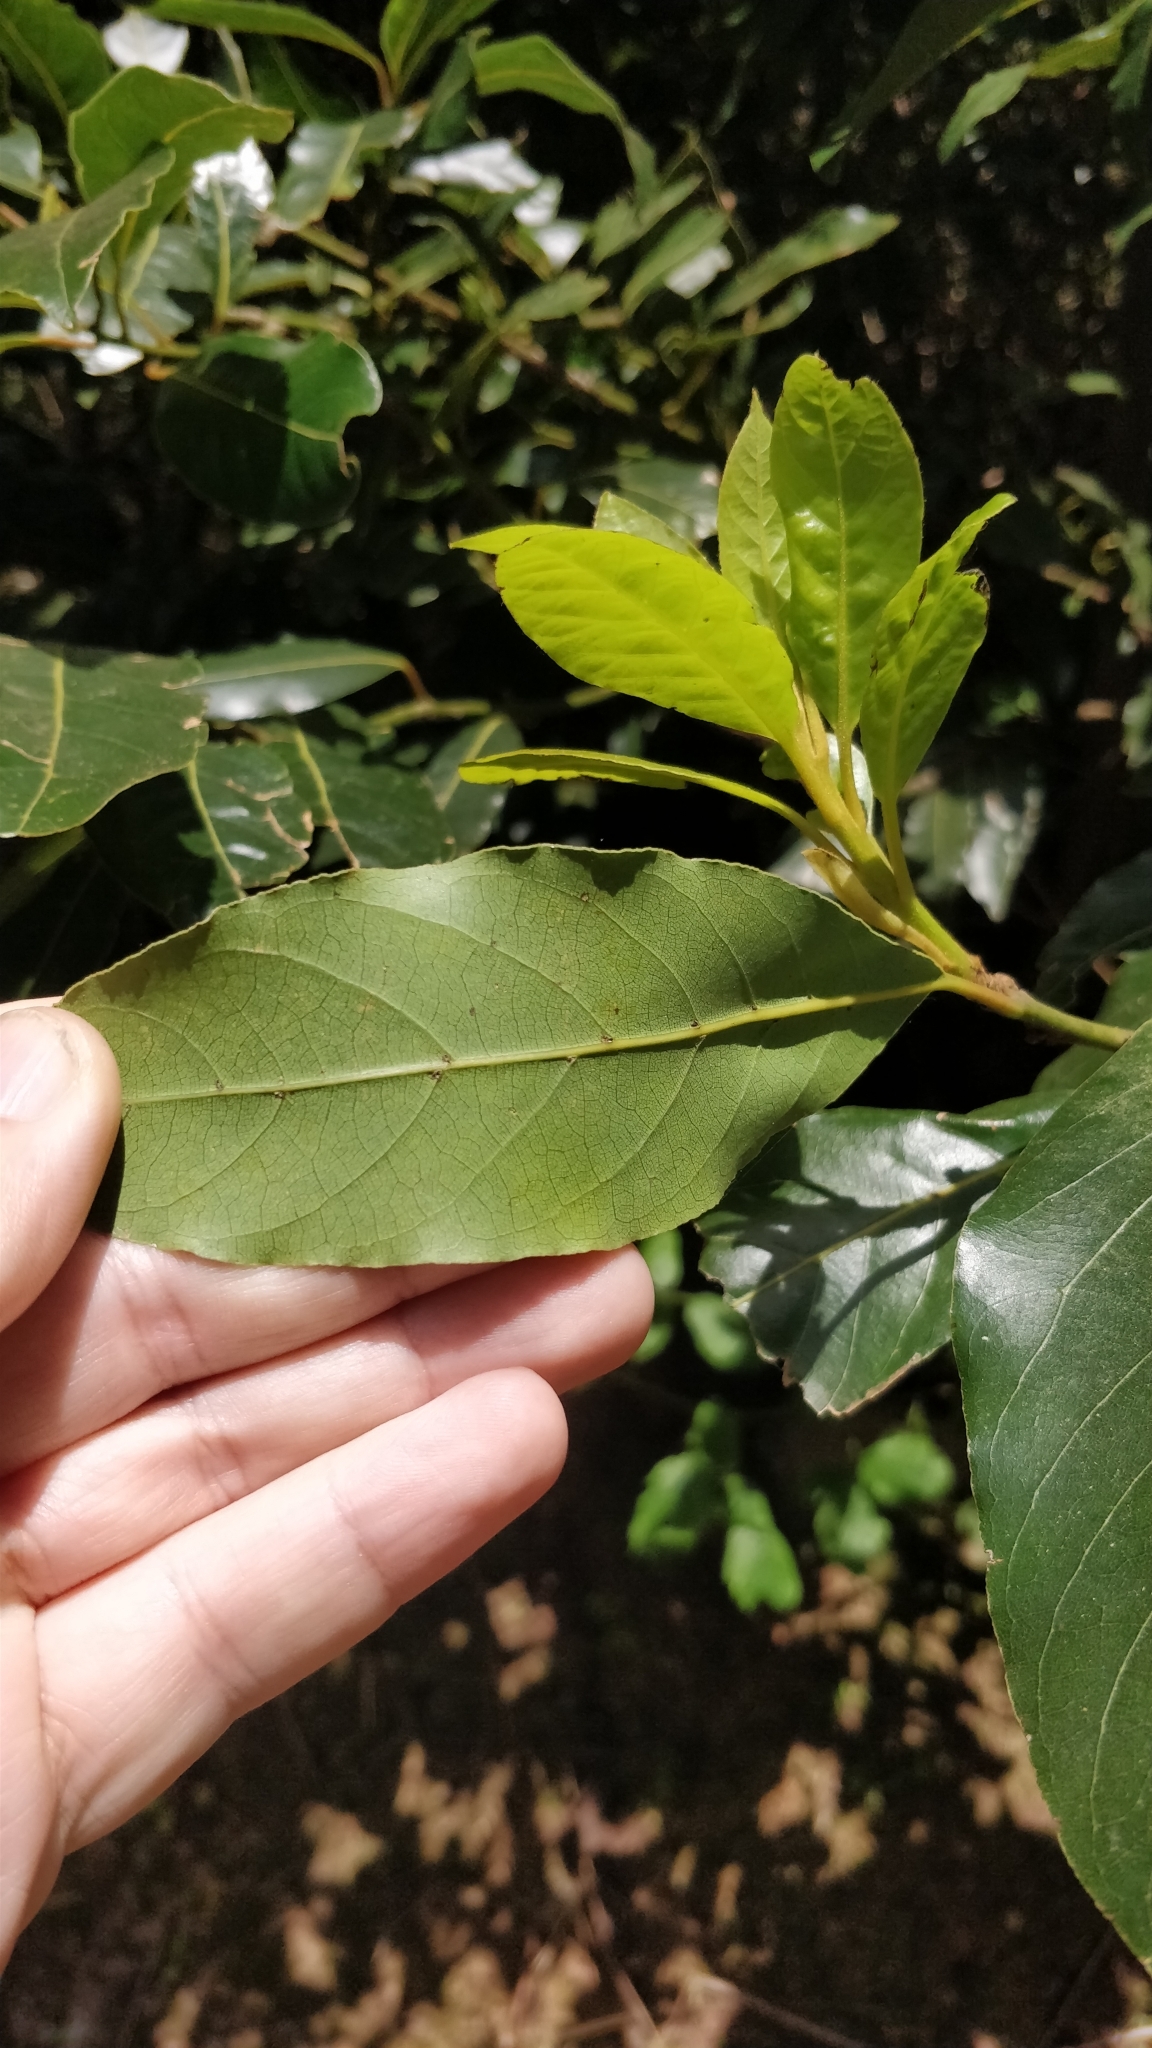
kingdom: Plantae
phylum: Tracheophyta
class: Magnoliopsida
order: Laurales
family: Lauraceae
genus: Laurus
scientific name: Laurus novocanariensis
